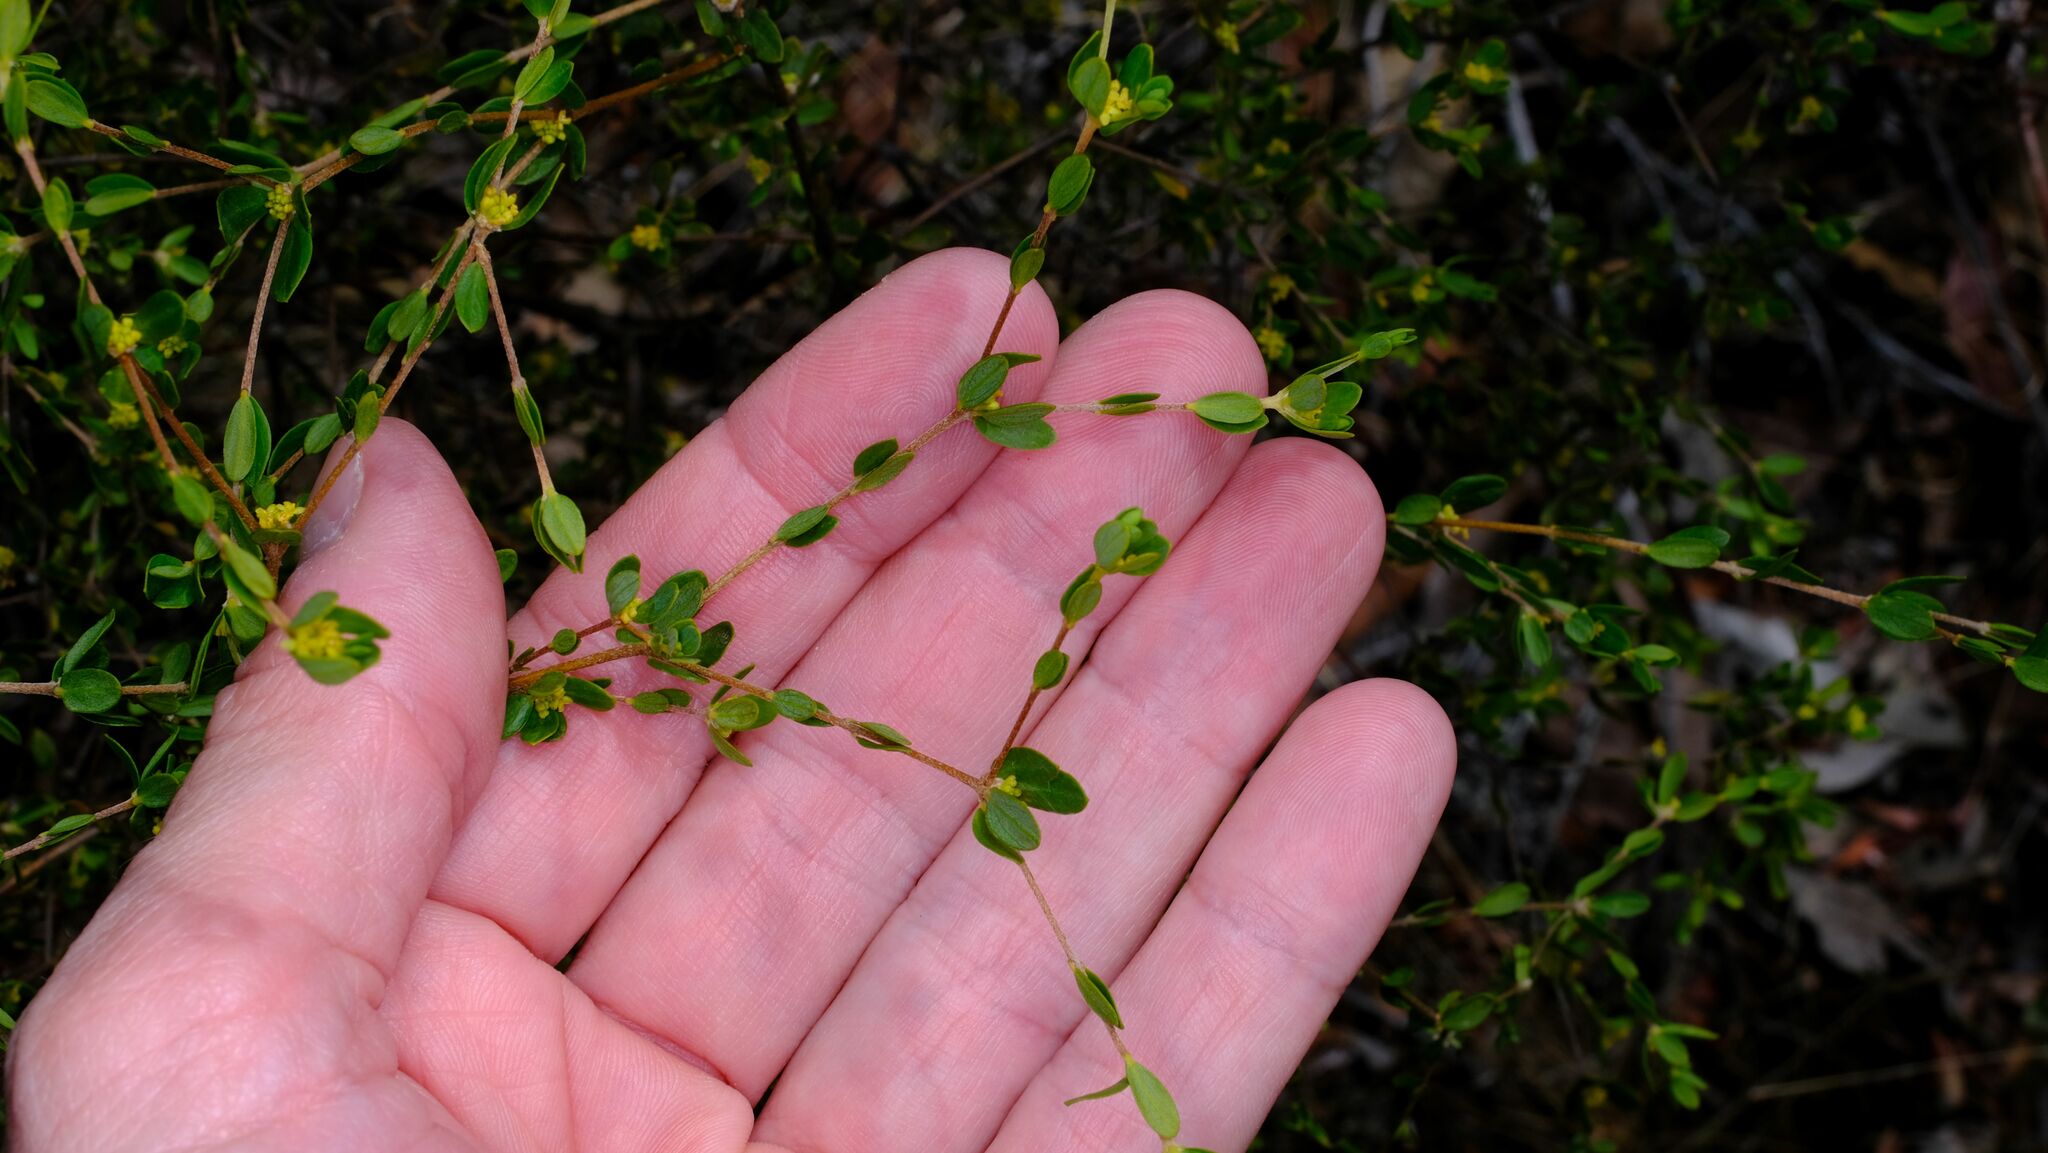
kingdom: Plantae
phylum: Tracheophyta
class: Magnoliopsida
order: Malvales
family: Thymelaeaceae
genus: Pimelea
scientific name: Pimelea hewardiana
